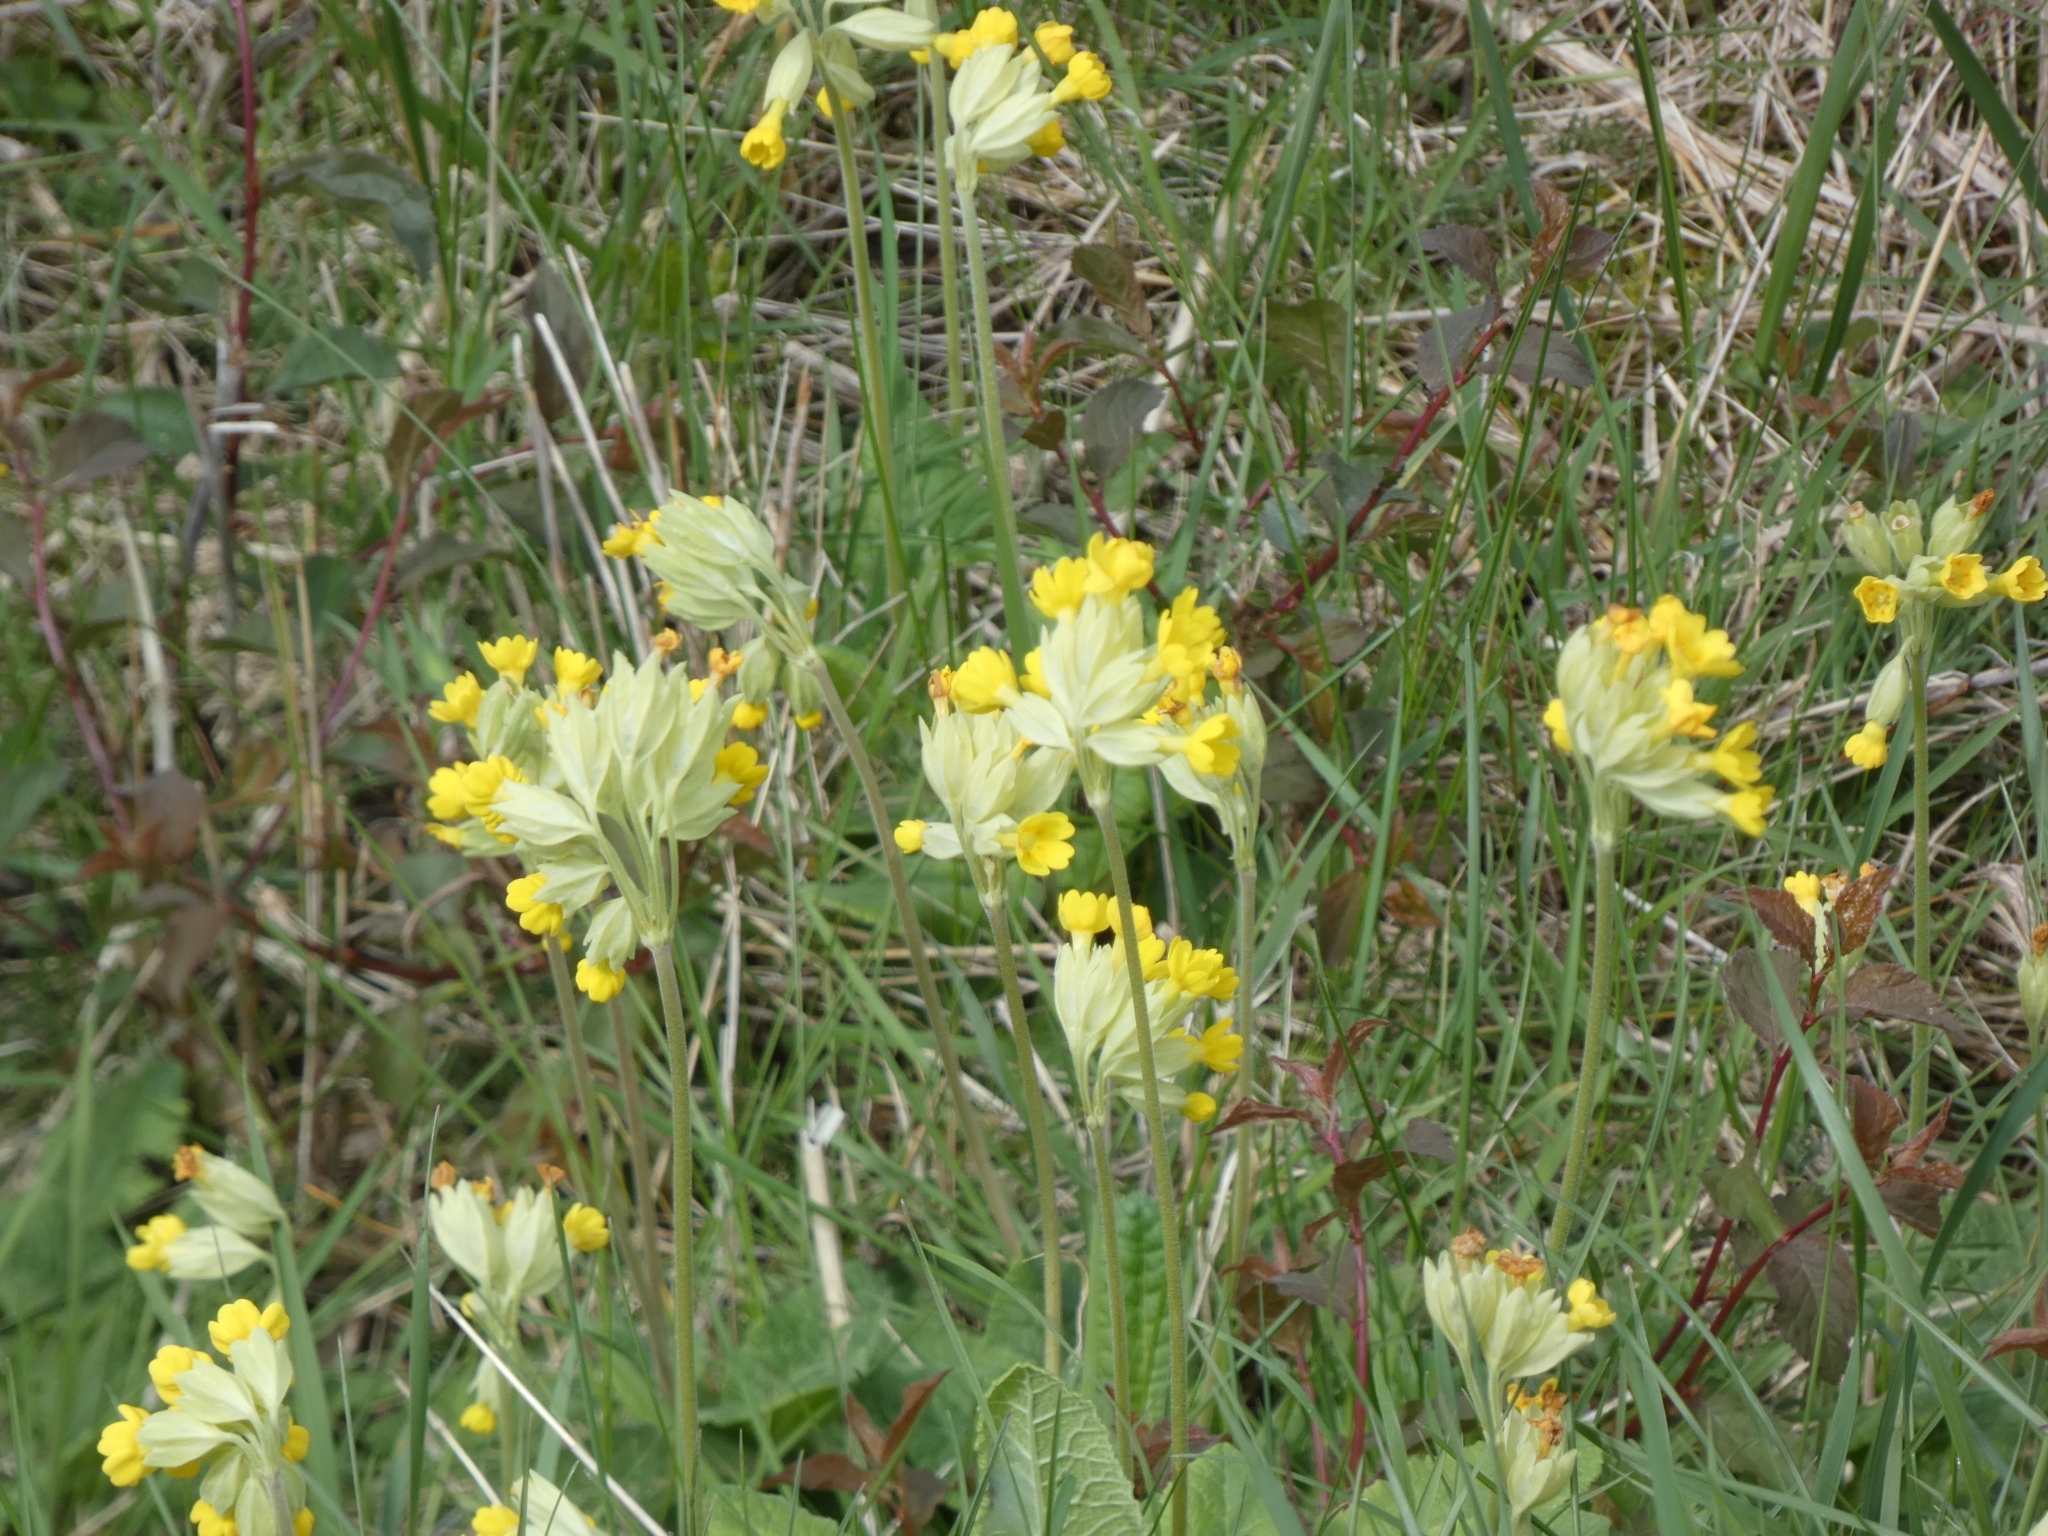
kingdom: Plantae
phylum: Tracheophyta
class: Magnoliopsida
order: Ericales
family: Primulaceae
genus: Primula
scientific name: Primula veris
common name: Cowslip
